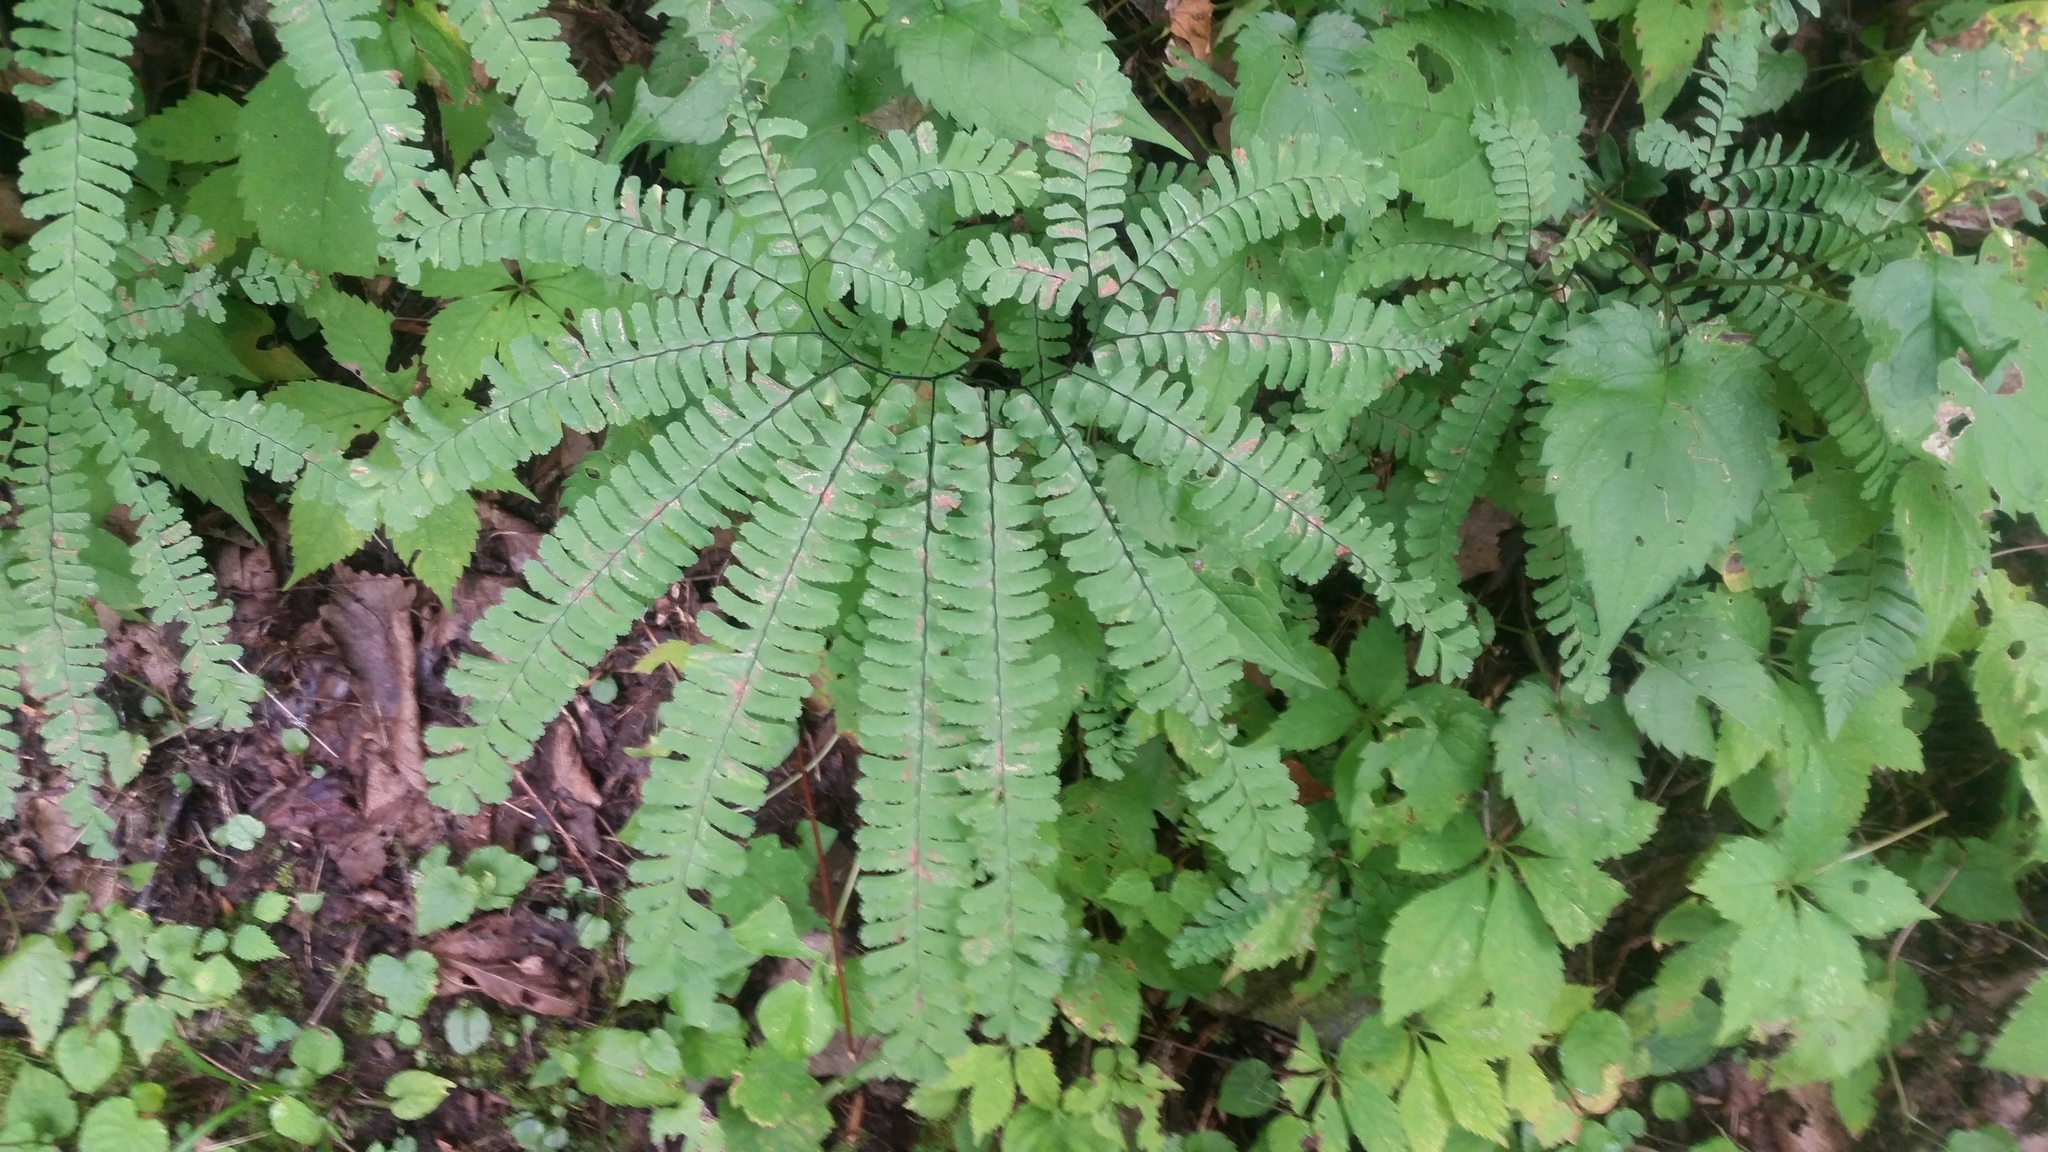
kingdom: Plantae
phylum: Tracheophyta
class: Polypodiopsida
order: Polypodiales
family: Pteridaceae
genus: Adiantum
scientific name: Adiantum pedatum
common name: Five-finger fern
